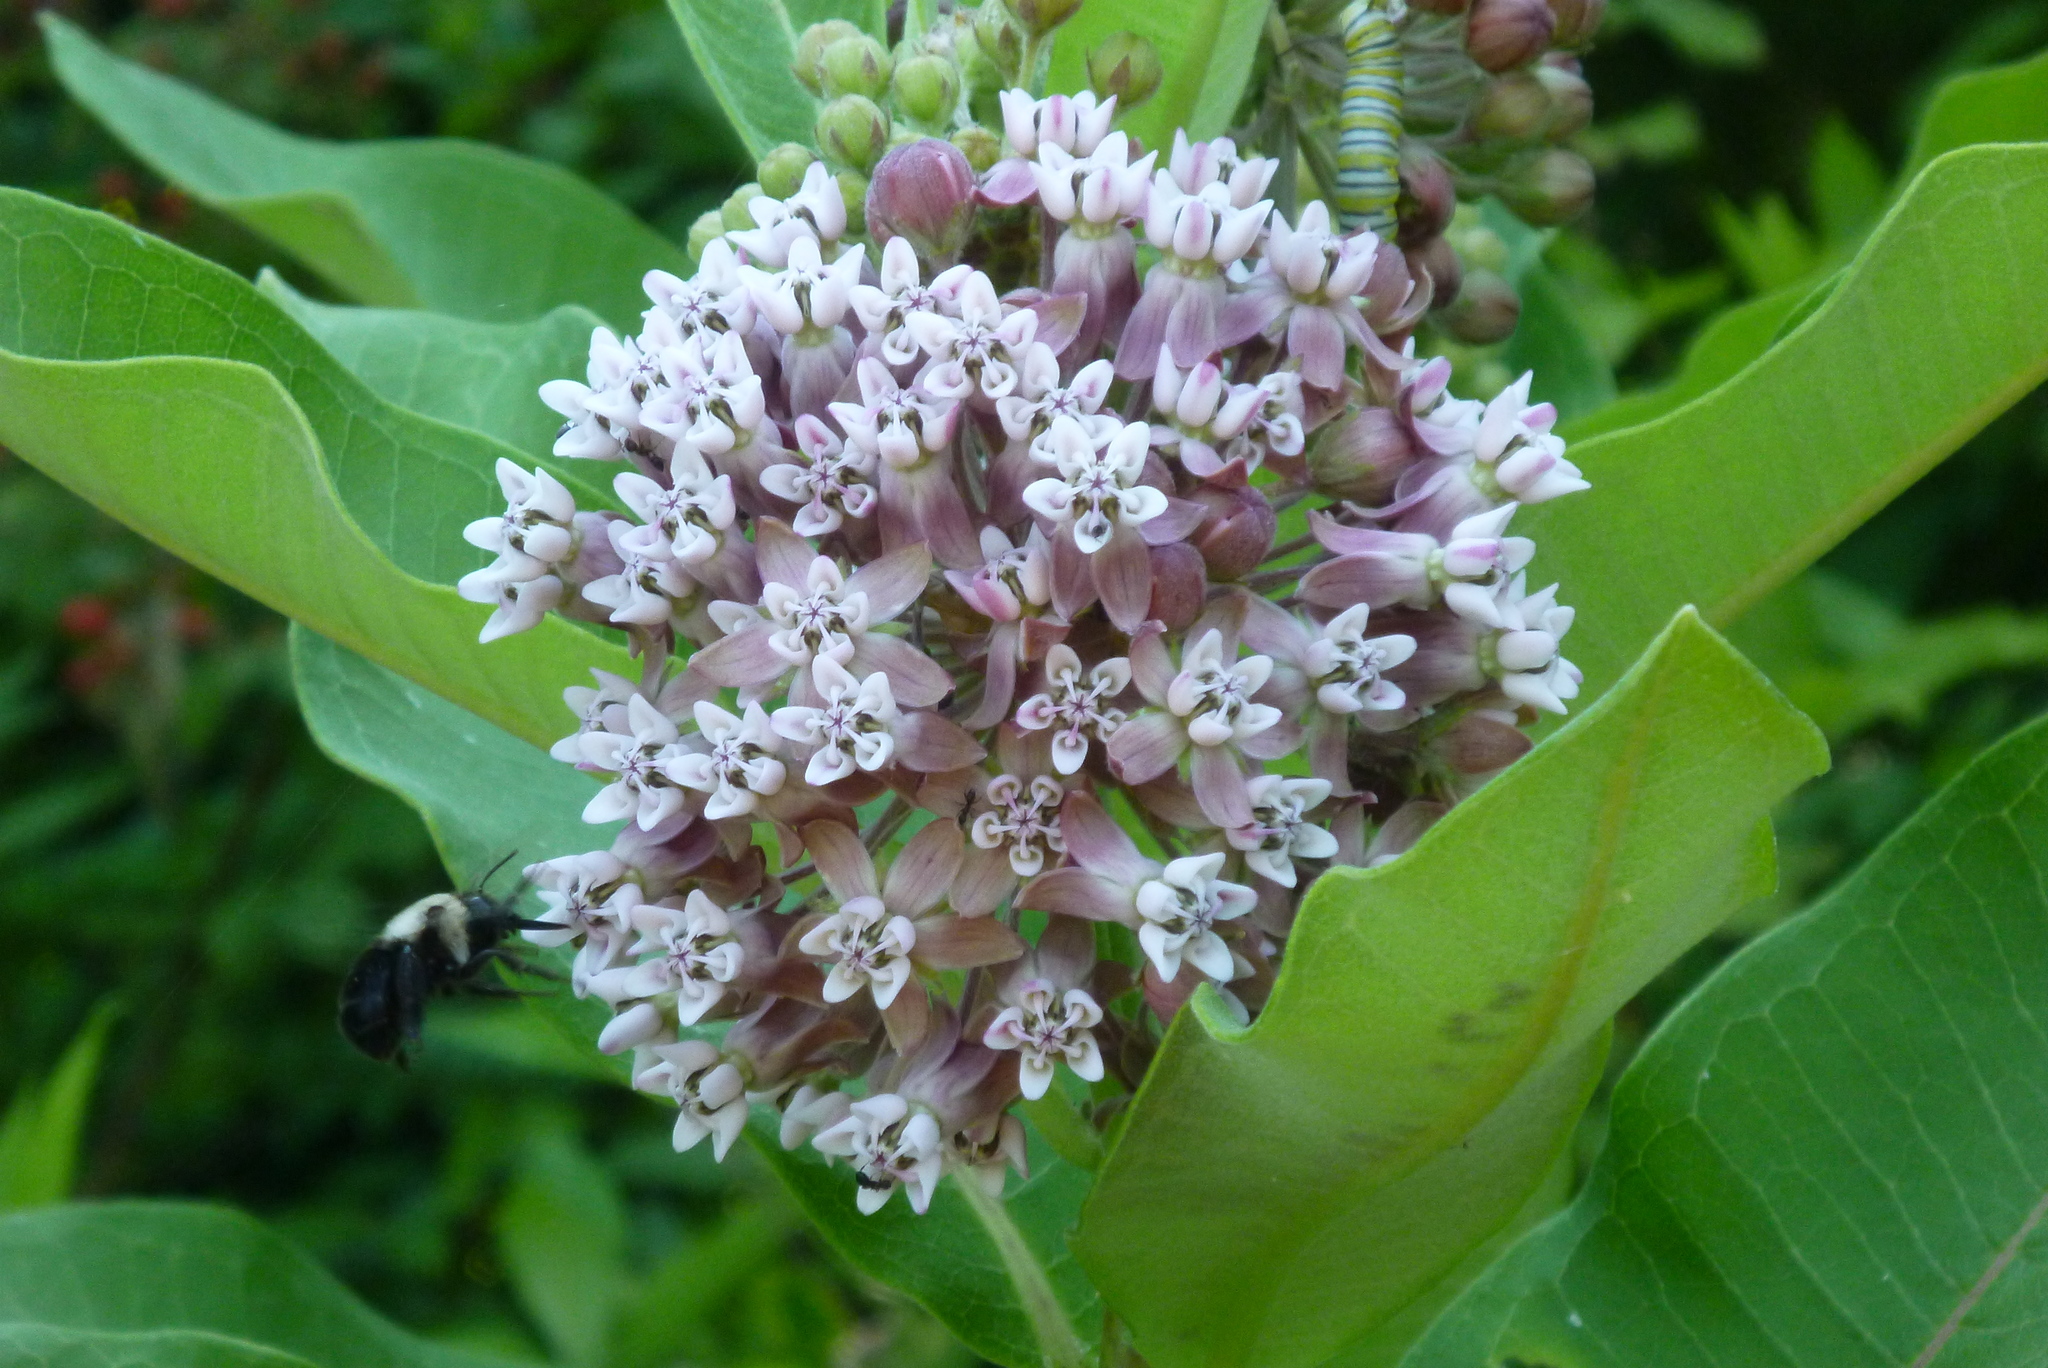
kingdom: Animalia
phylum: Arthropoda
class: Insecta
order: Hymenoptera
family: Apidae
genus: Anthophora
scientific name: Anthophora abrupta
